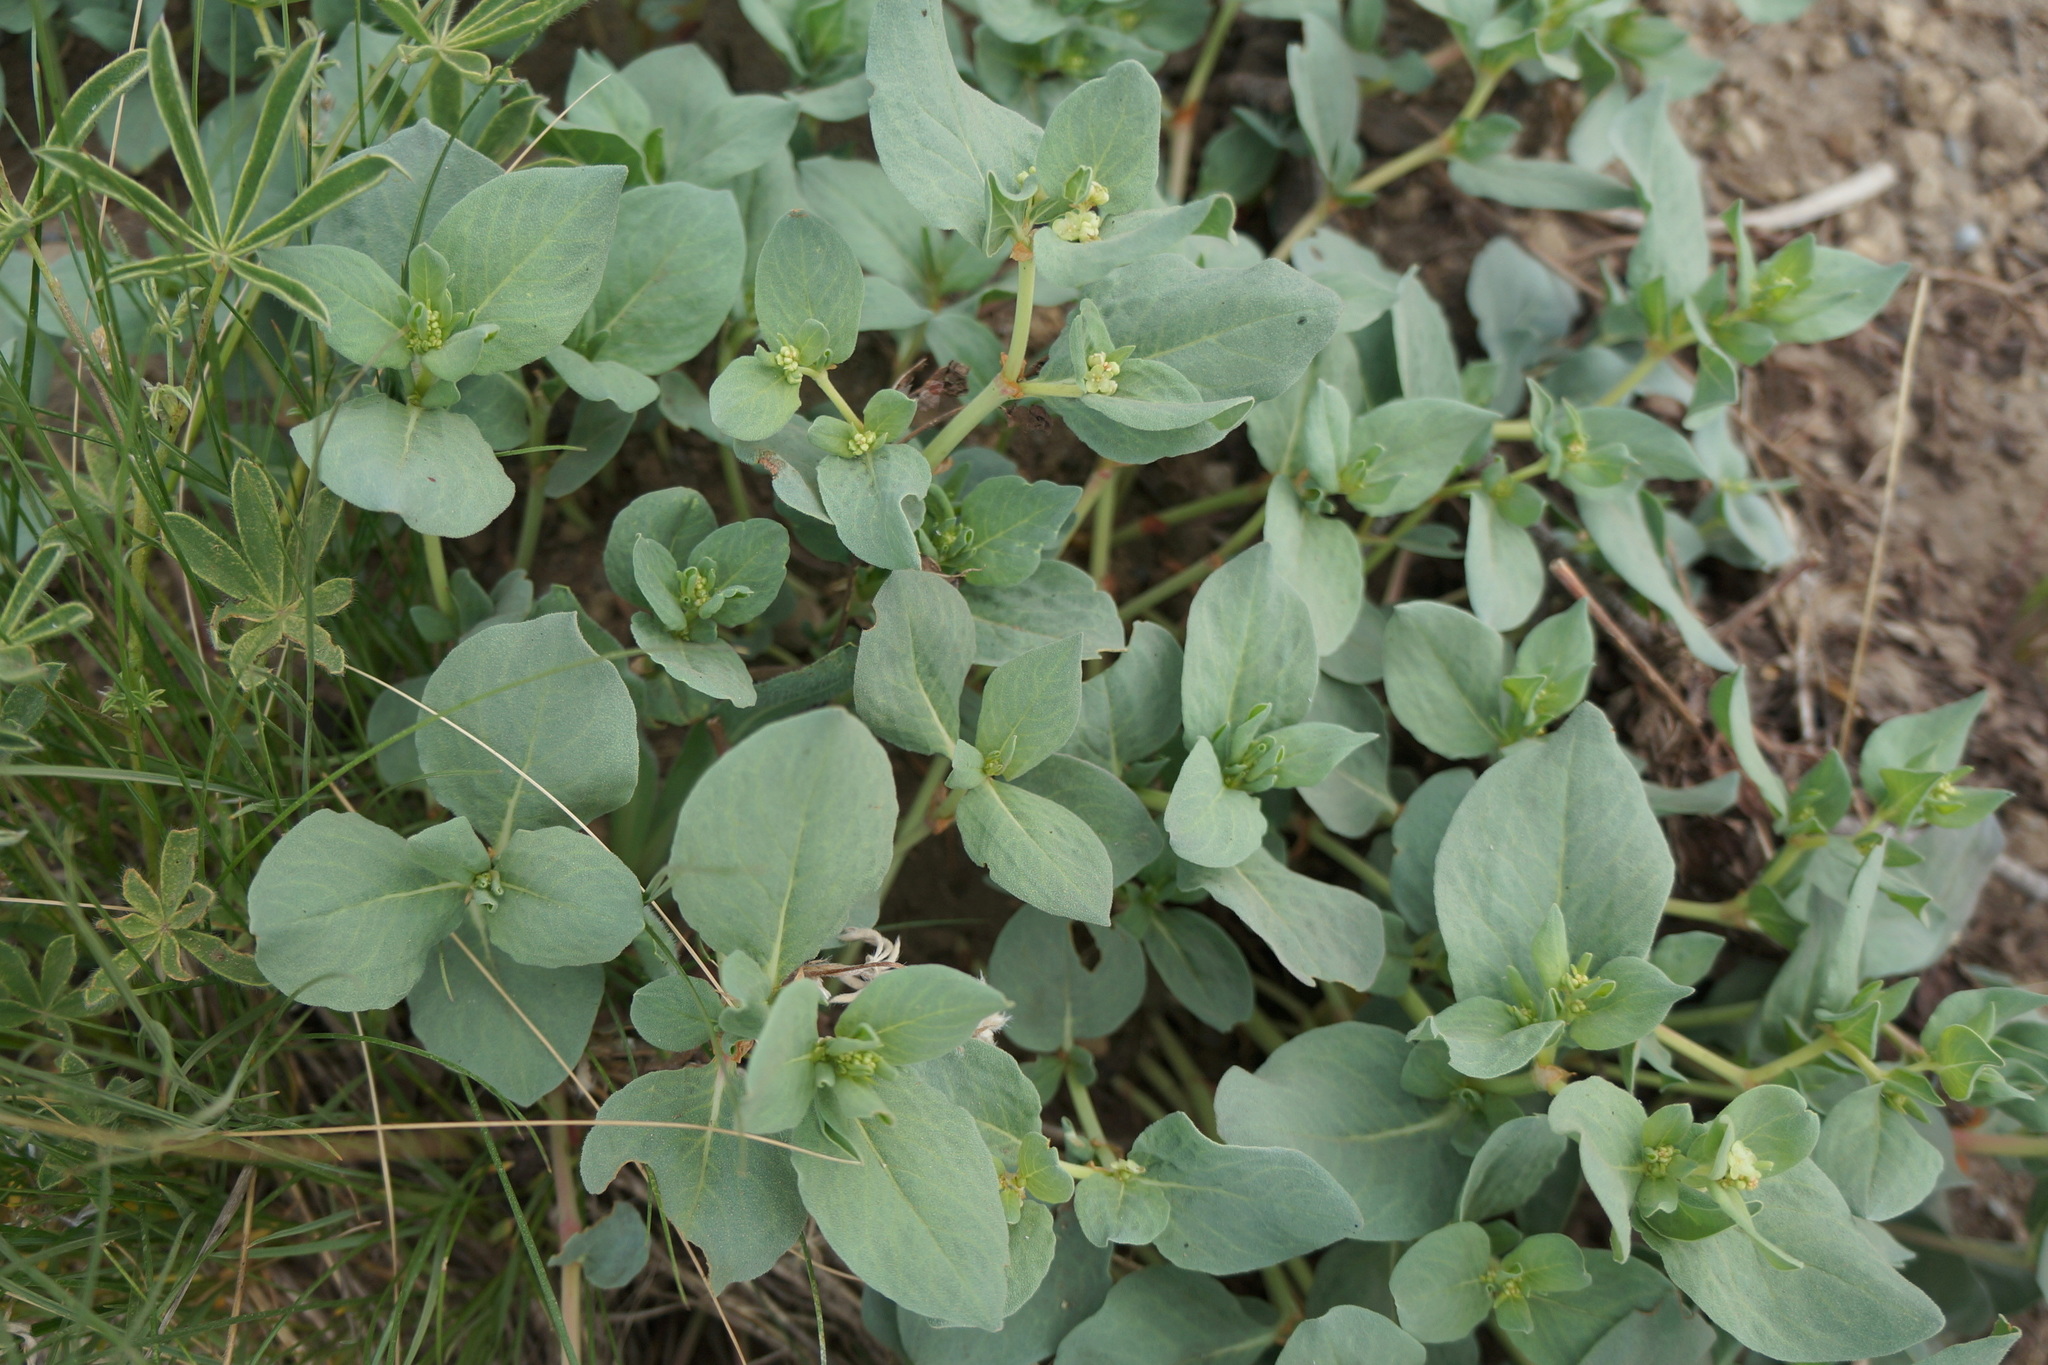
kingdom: Plantae
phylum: Tracheophyta
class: Magnoliopsida
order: Caryophyllales
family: Polygonaceae
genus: Koenigia
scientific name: Koenigia davisiae
